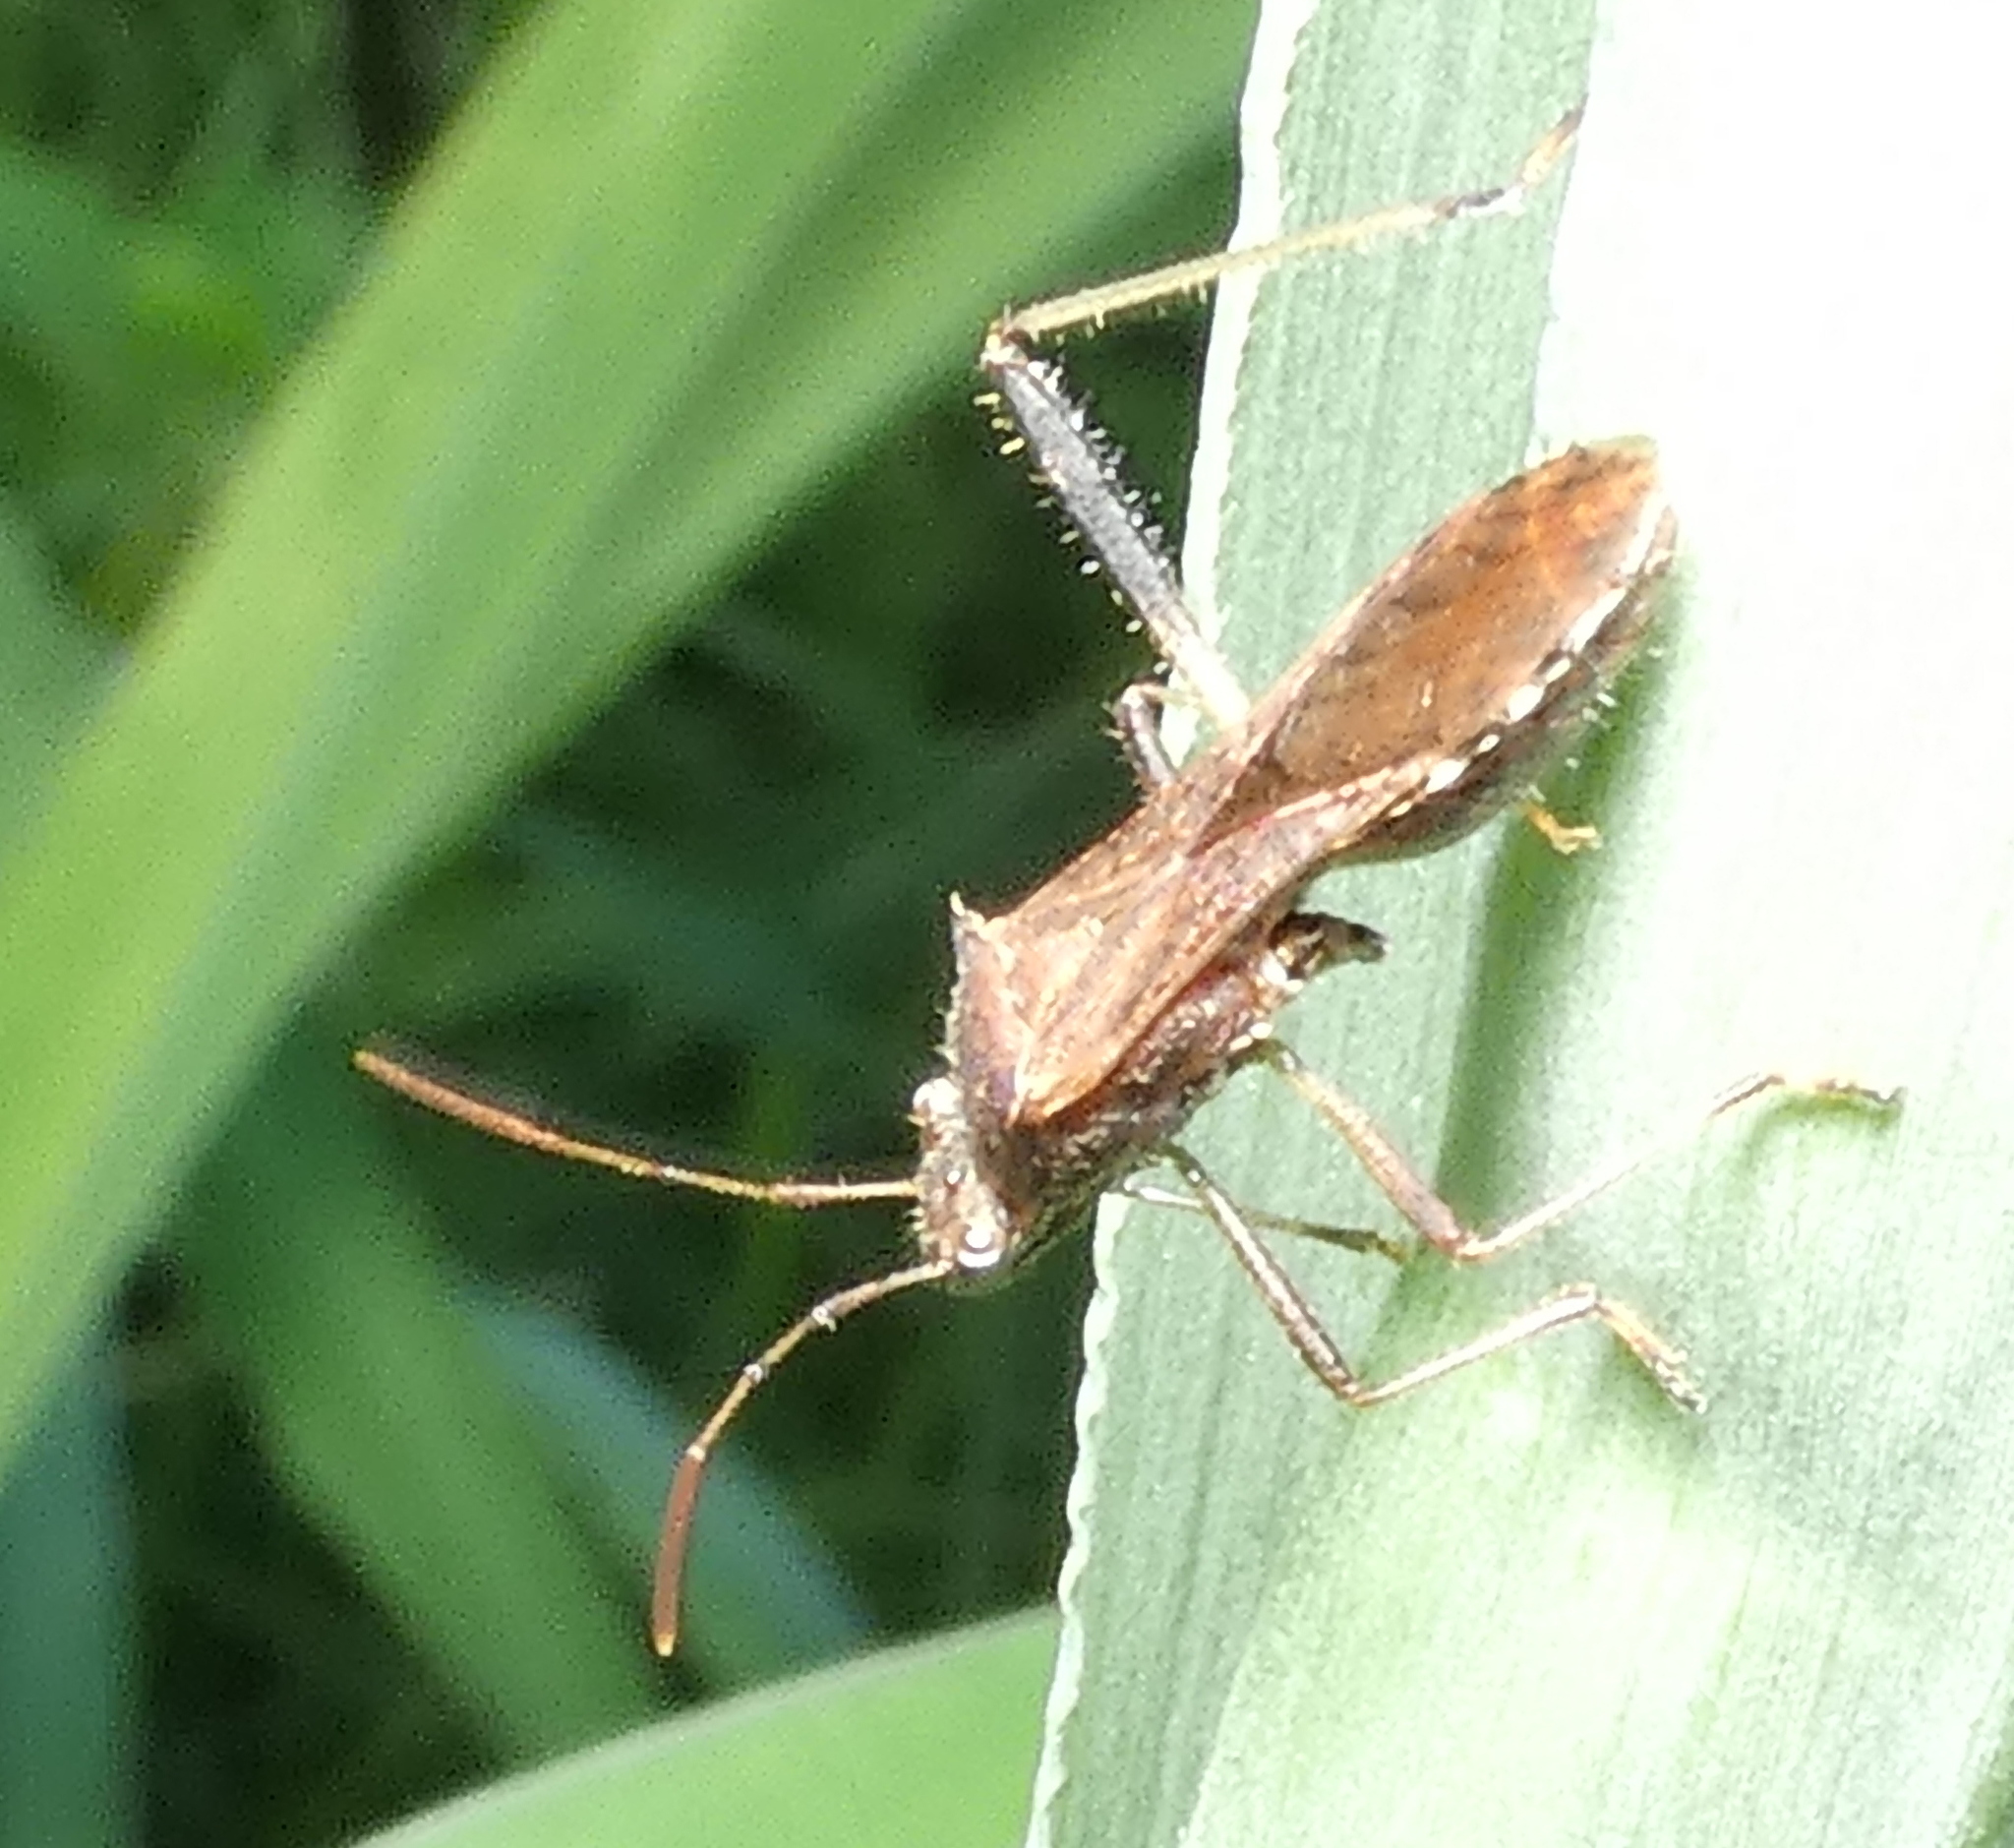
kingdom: Animalia
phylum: Arthropoda
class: Insecta
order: Hemiptera
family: Alydidae
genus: Neomegalotomus
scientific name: Neomegalotomus parvus
